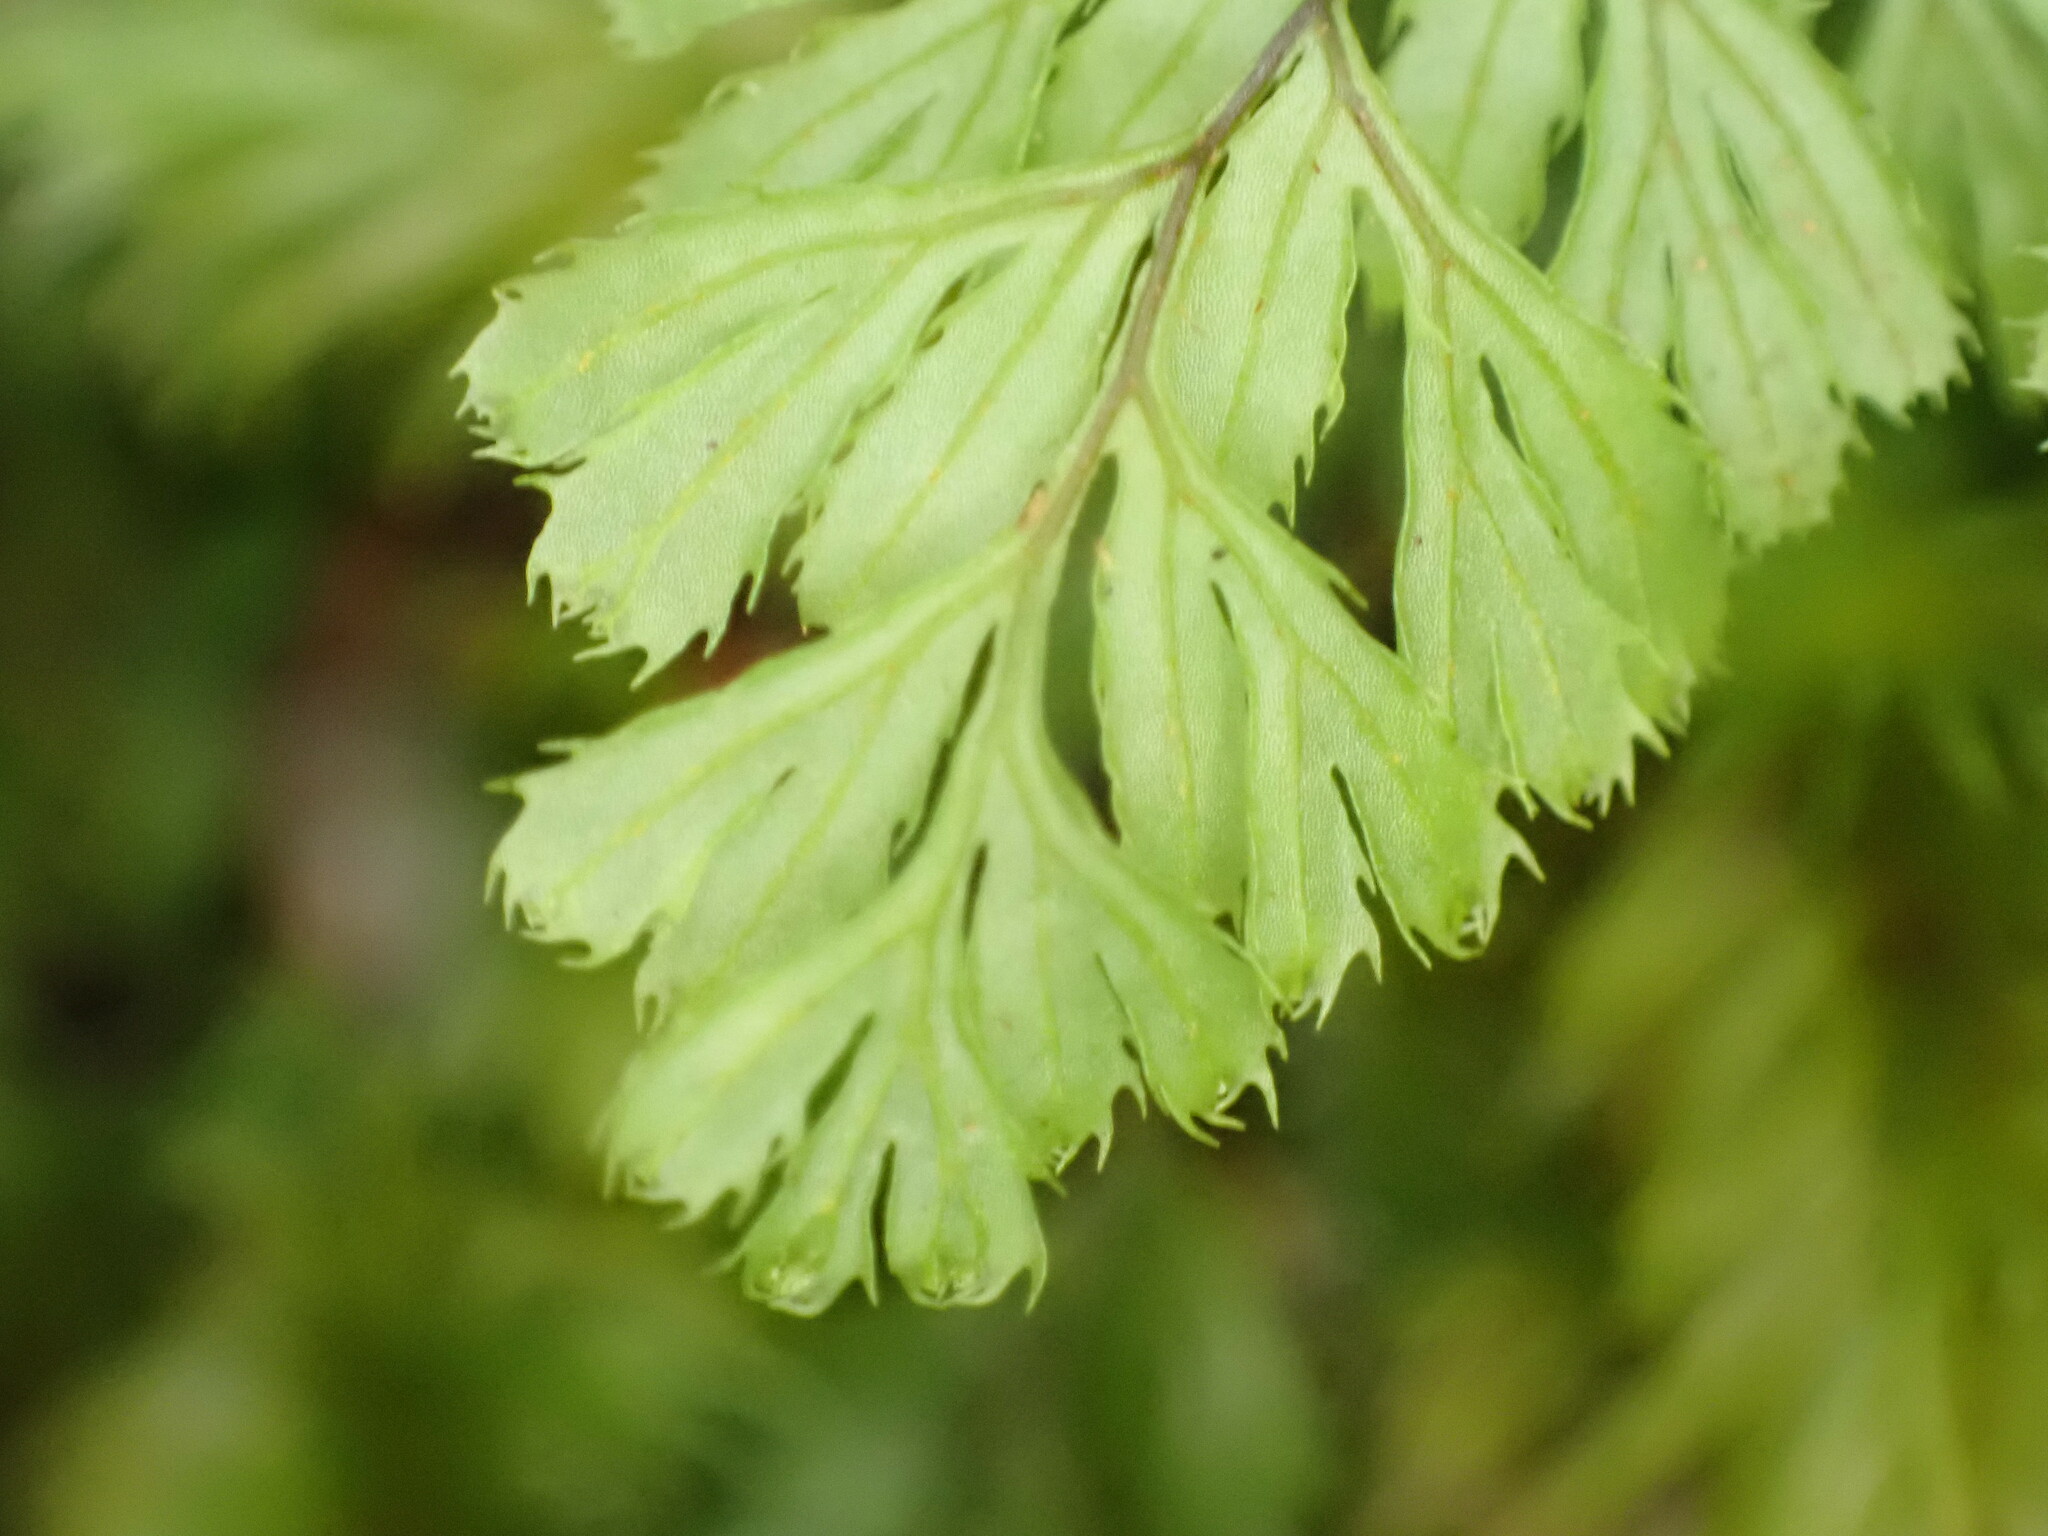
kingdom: Plantae
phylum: Tracheophyta
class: Polypodiopsida
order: Hymenophyllales
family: Hymenophyllaceae
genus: Hymenophyllum
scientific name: Hymenophyllum revolutum
